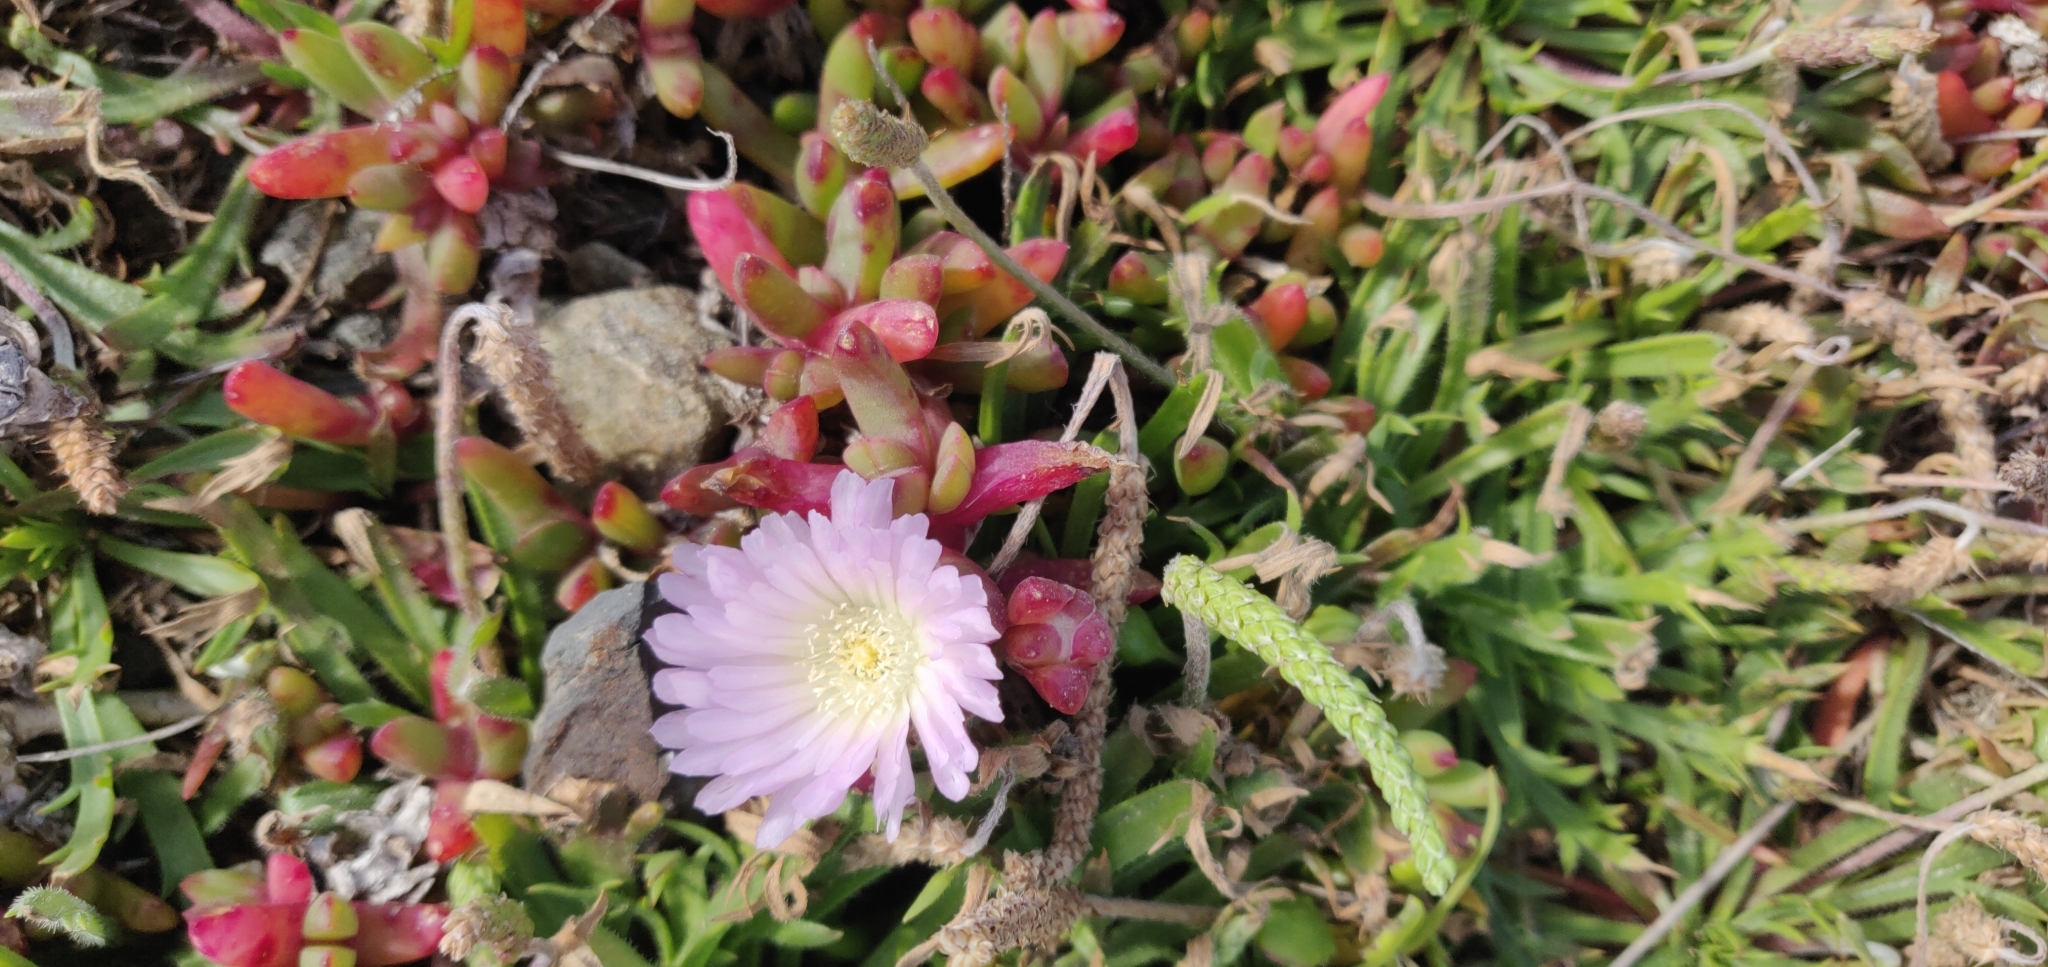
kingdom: Plantae
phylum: Tracheophyta
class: Magnoliopsida
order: Caryophyllales
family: Aizoaceae
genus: Disphyma
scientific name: Disphyma australe
